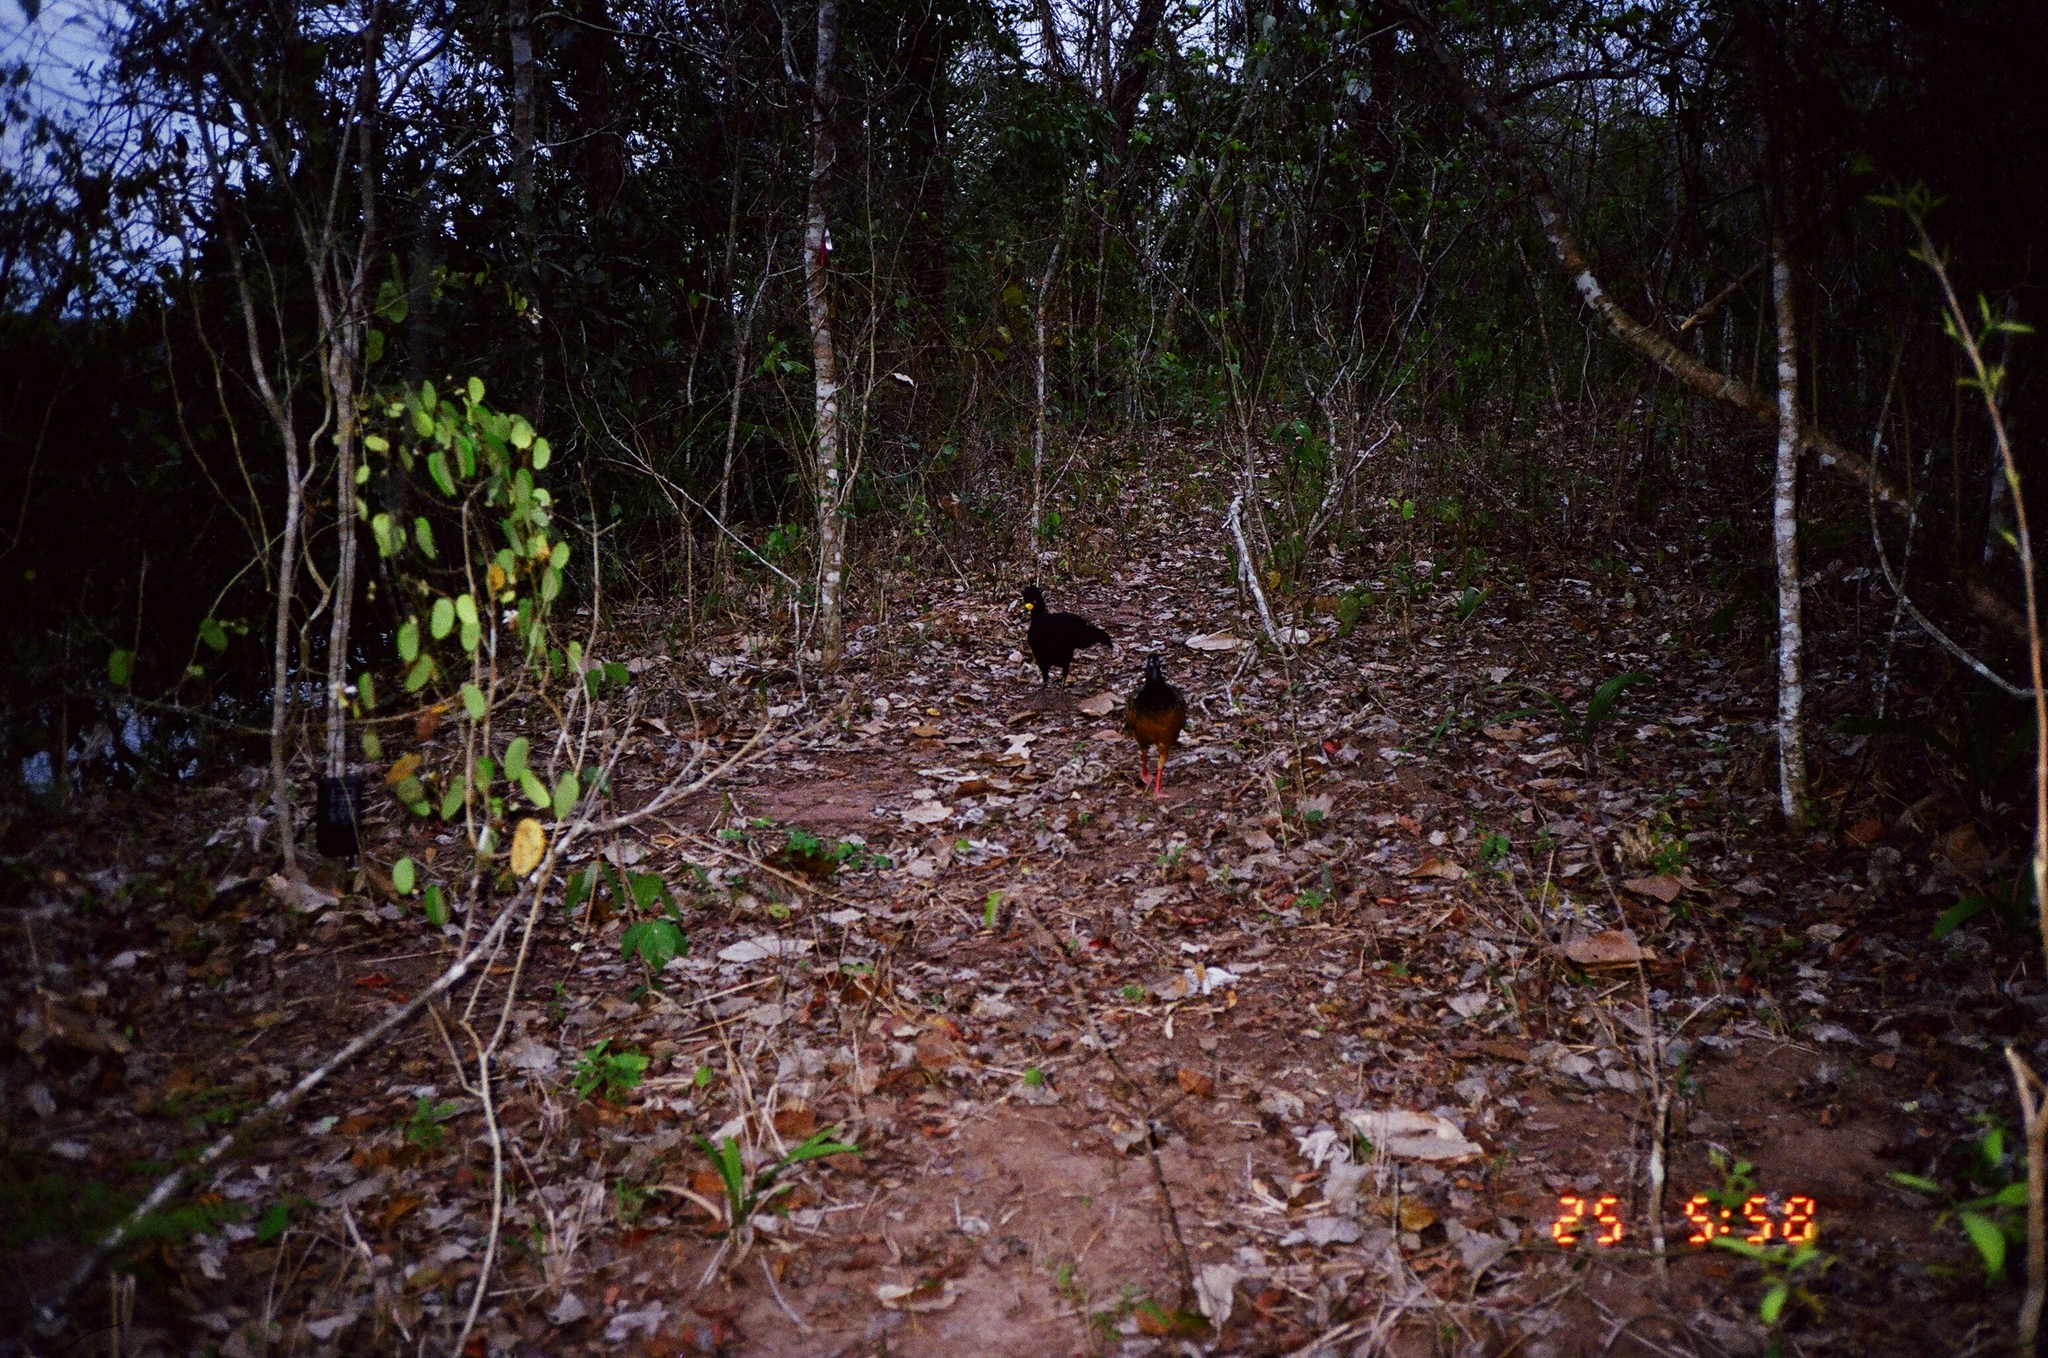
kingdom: Animalia
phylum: Chordata
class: Aves
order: Galliformes
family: Cracidae
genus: Crax
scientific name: Crax fasciolata
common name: Bare-faced curassow
